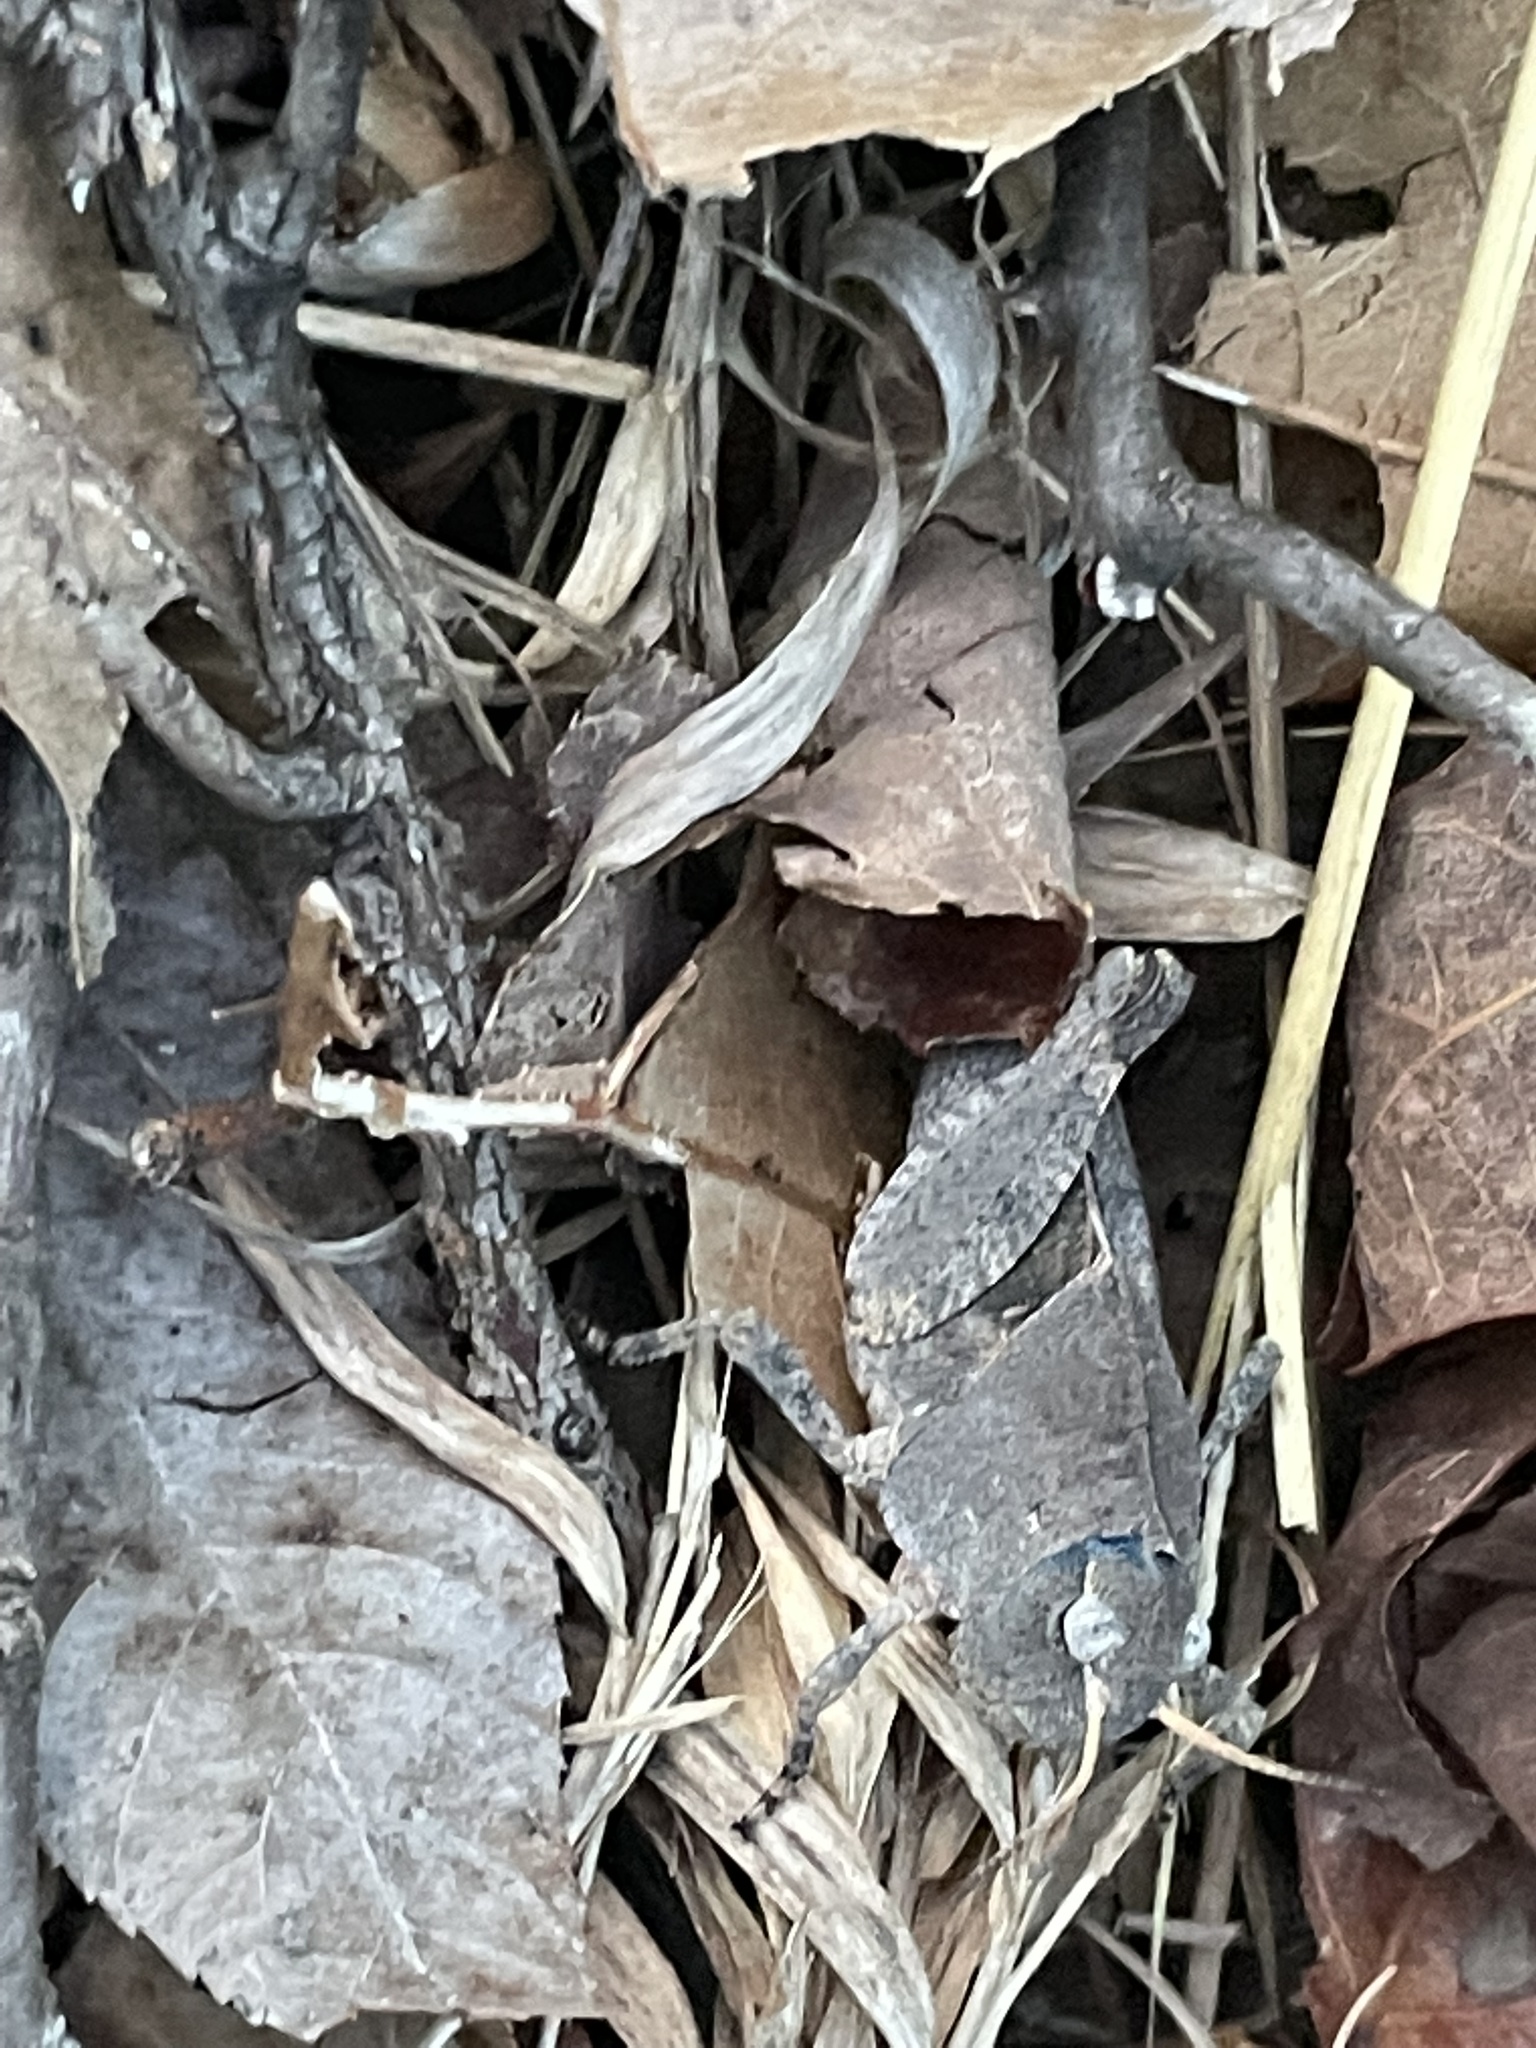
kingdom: Animalia
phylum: Arthropoda
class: Insecta
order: Orthoptera
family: Acrididae
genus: Pardalophora
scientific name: Pardalophora phoenicoptera
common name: Orange-winged grasshopper
